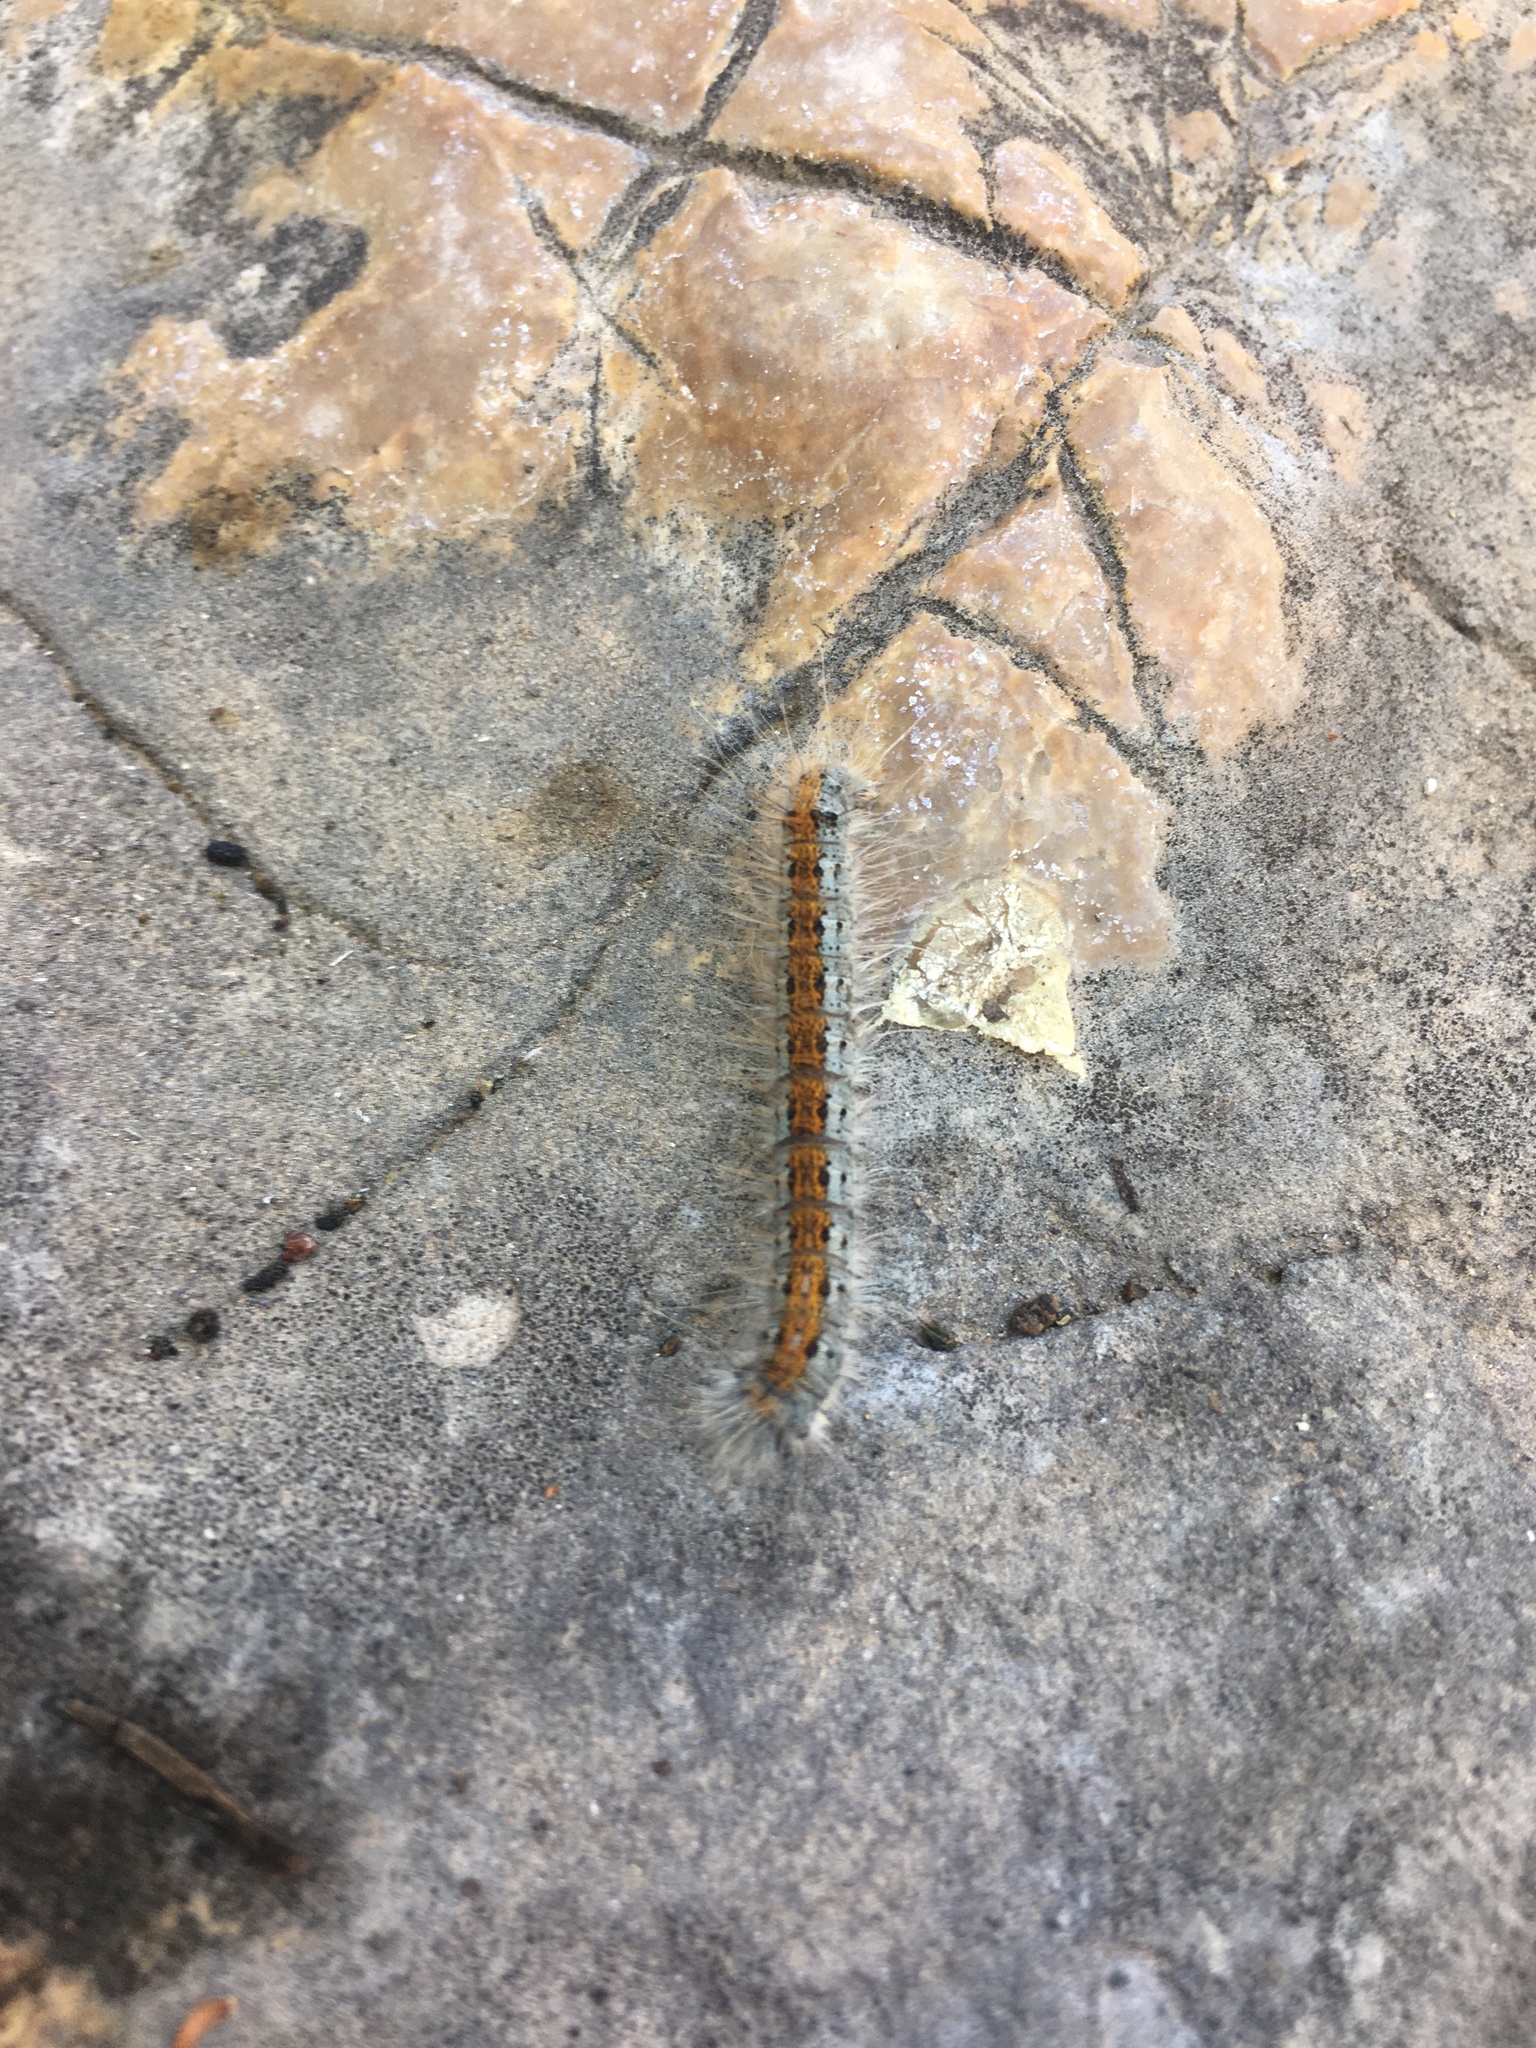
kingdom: Animalia
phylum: Arthropoda
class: Insecta
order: Lepidoptera
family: Lasiocampidae
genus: Malacosoma
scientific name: Malacosoma incurva
